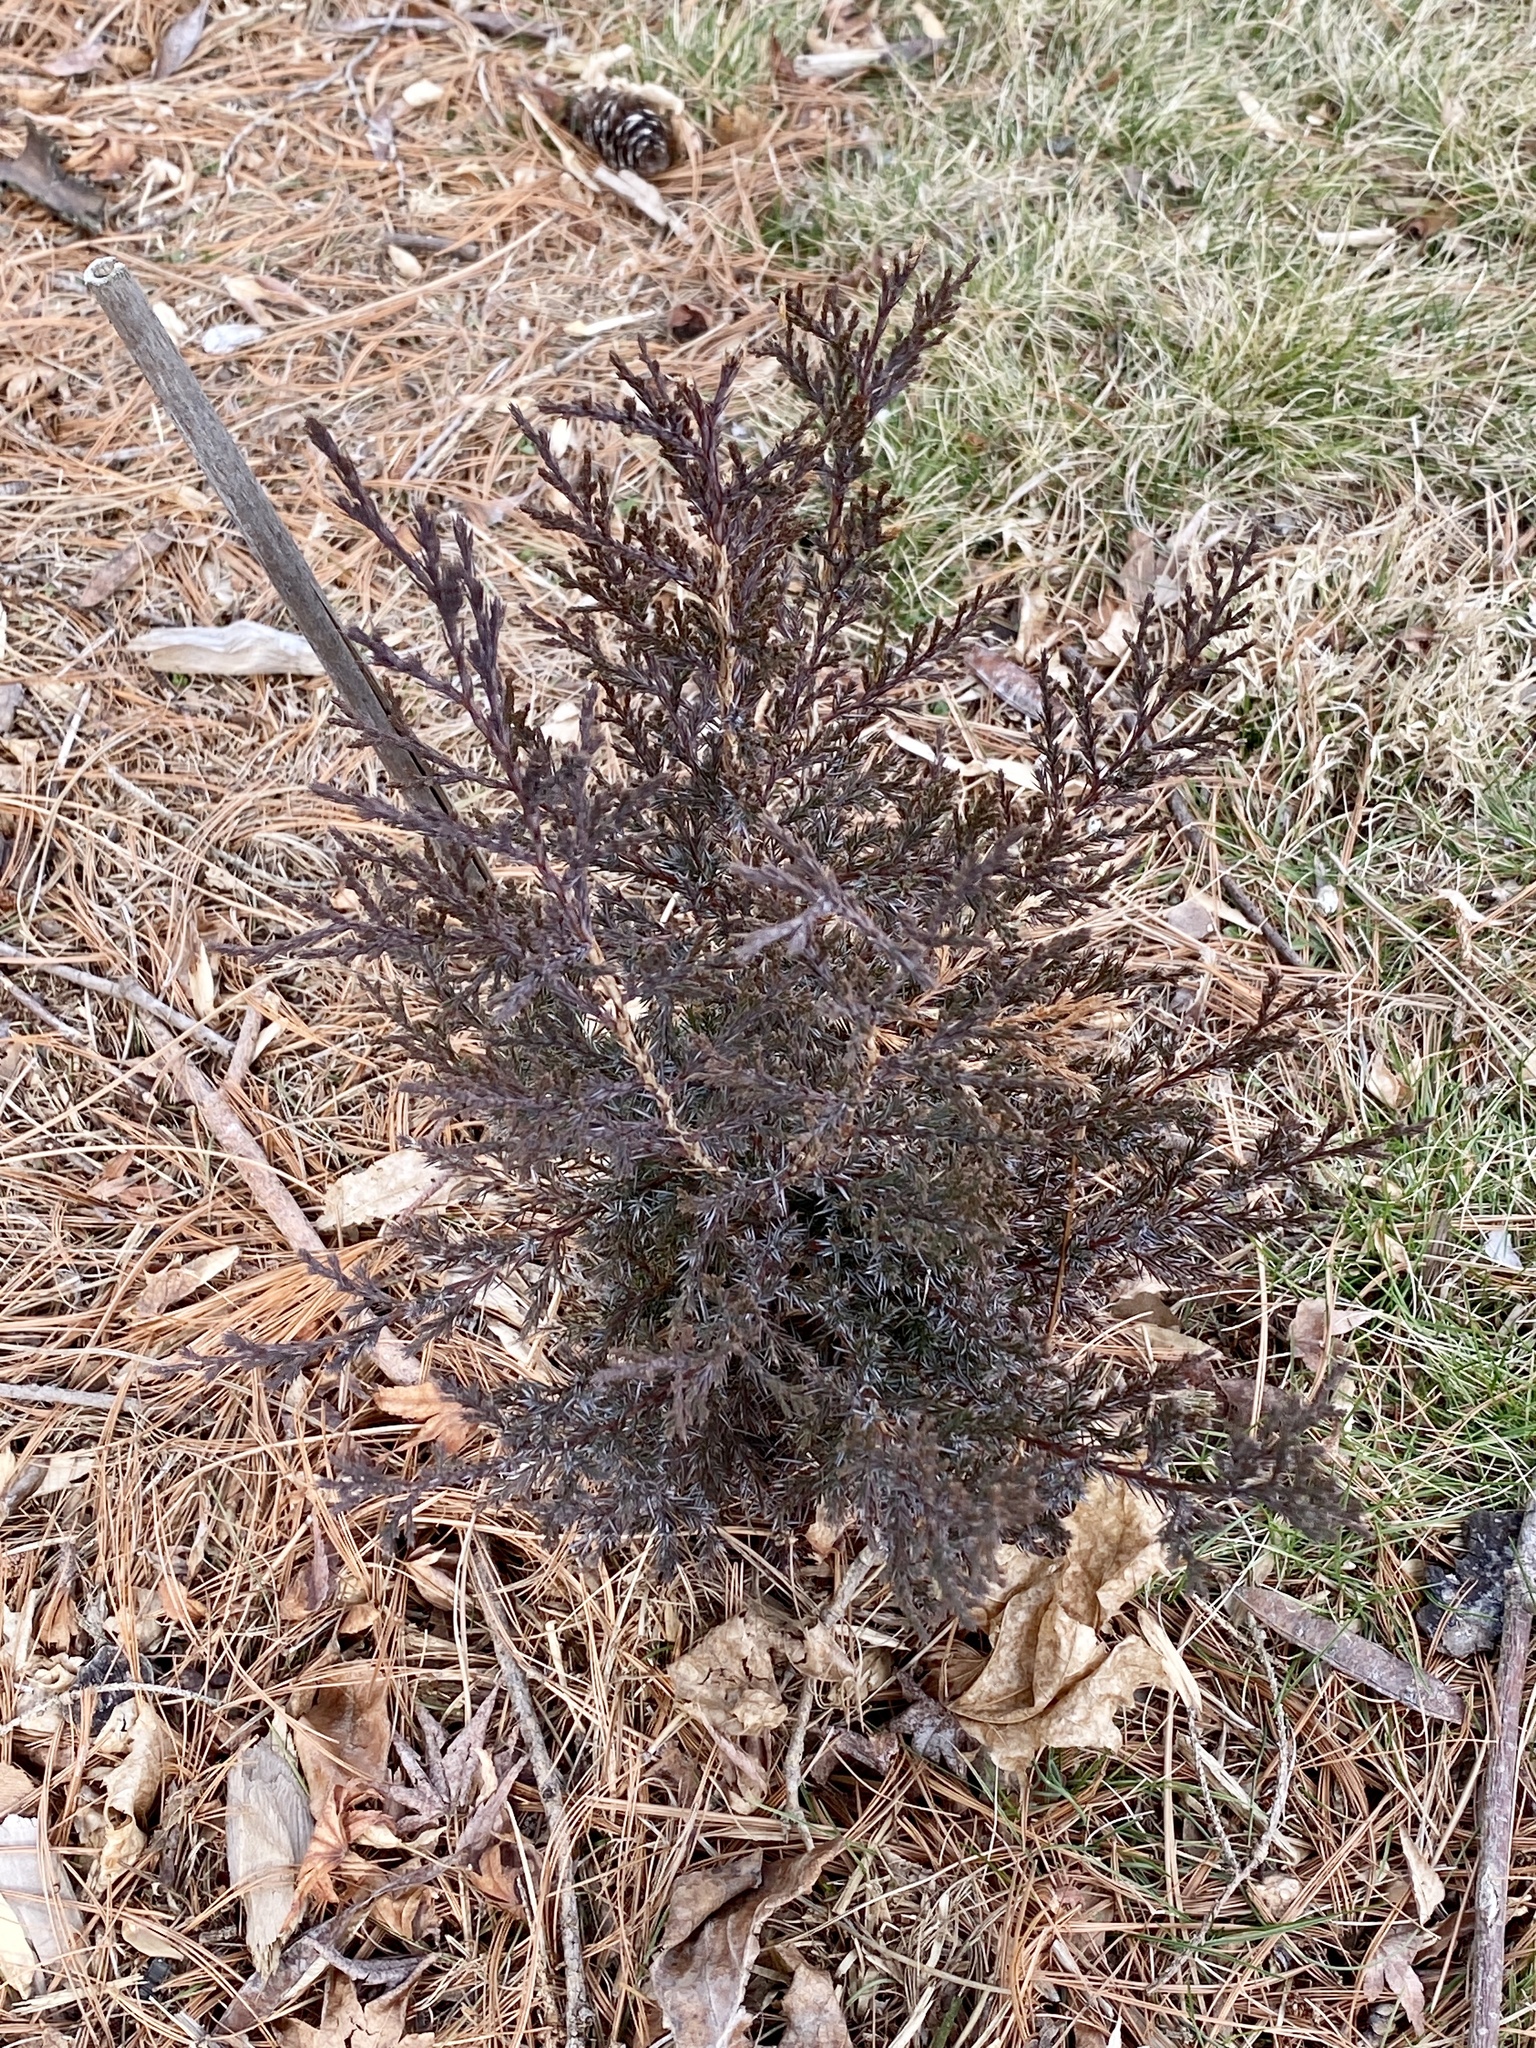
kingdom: Plantae
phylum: Tracheophyta
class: Pinopsida
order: Pinales
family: Cupressaceae
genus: Juniperus
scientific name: Juniperus virginiana
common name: Red juniper
